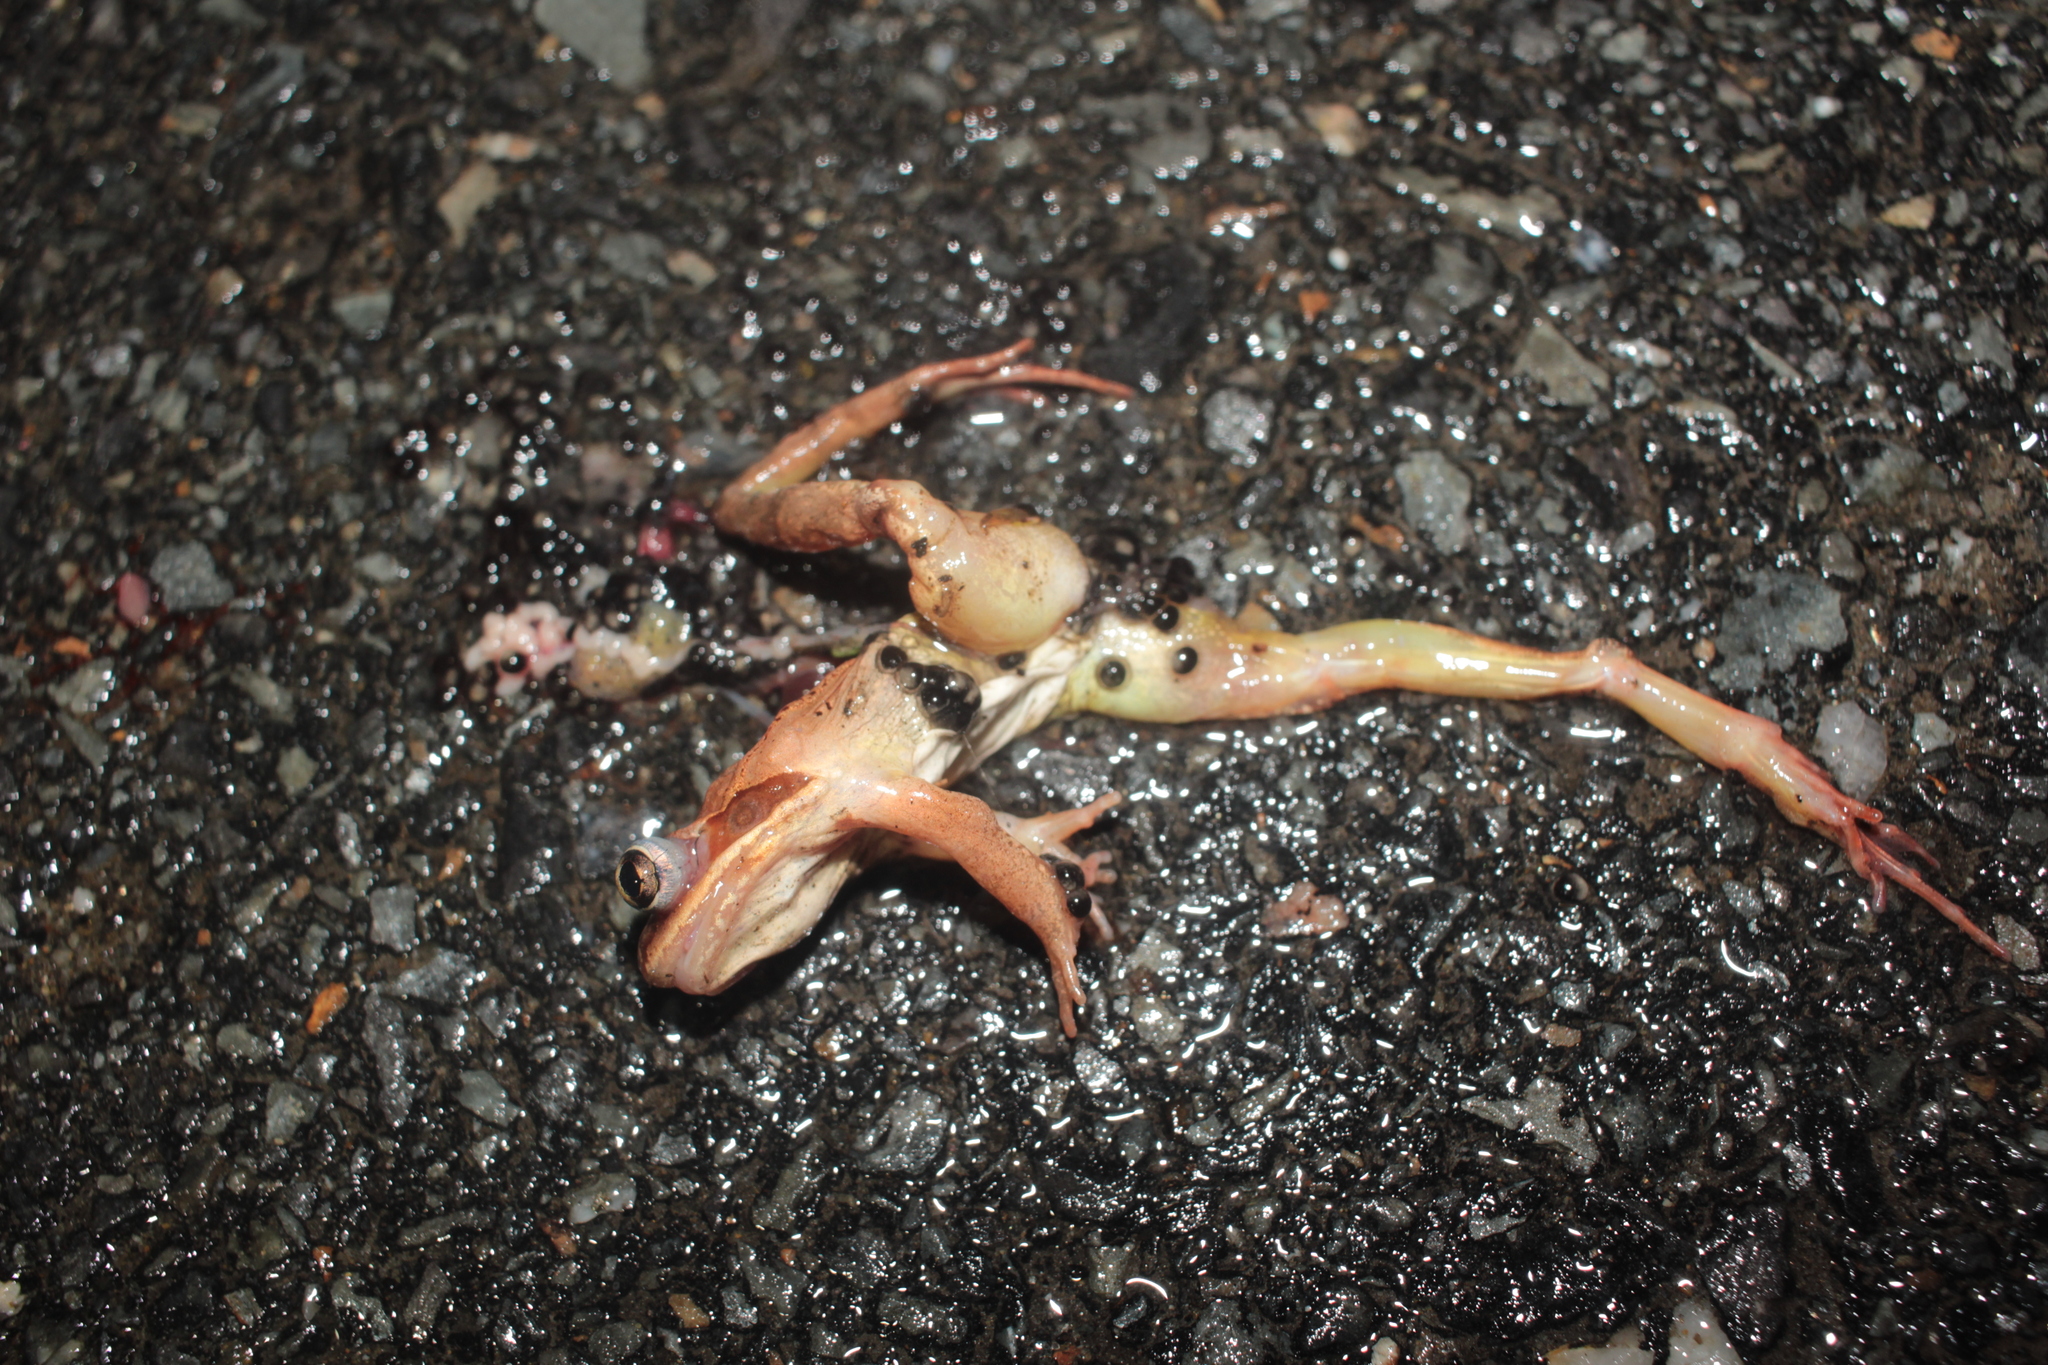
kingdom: Animalia
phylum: Chordata
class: Amphibia
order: Anura
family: Ranidae
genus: Lithobates
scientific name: Lithobates sylvaticus
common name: Wood frog
